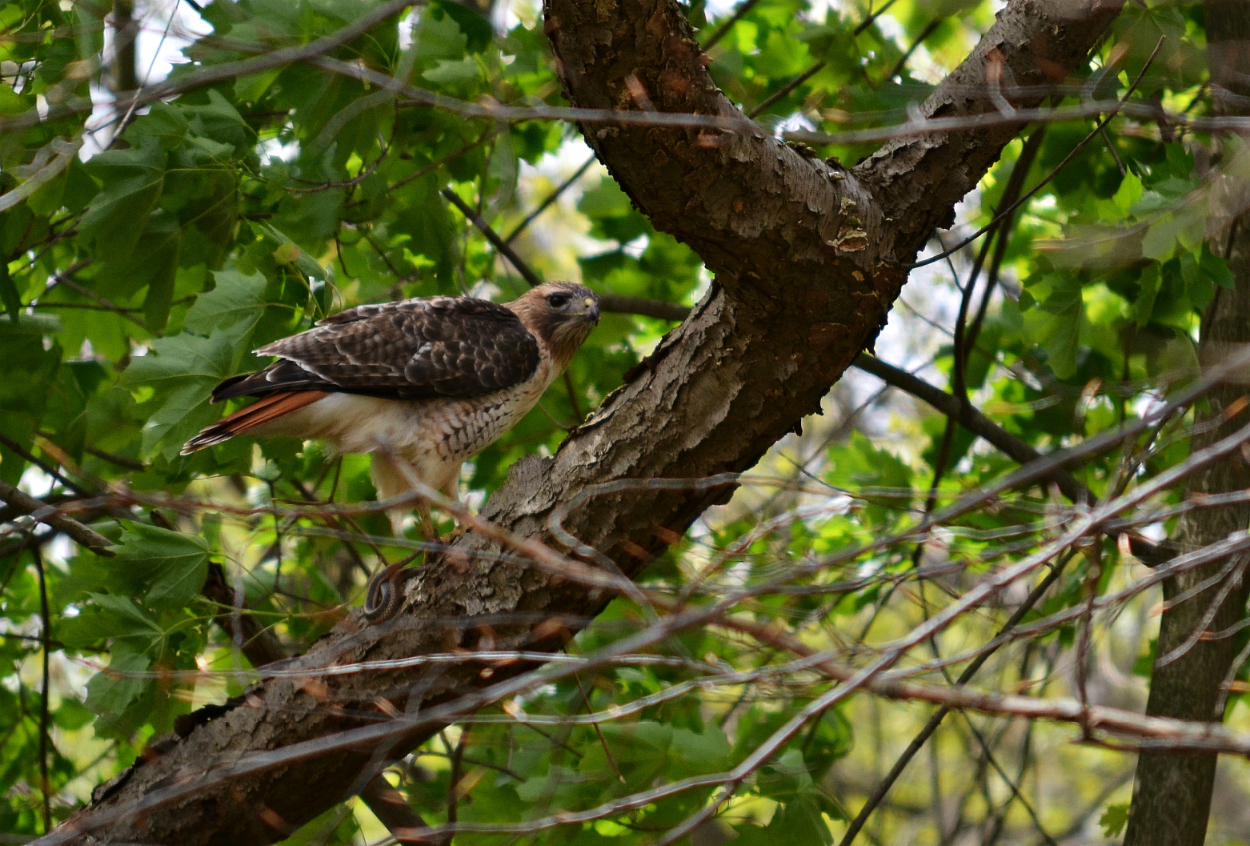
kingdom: Animalia
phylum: Chordata
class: Aves
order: Accipitriformes
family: Accipitridae
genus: Buteo
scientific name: Buteo jamaicensis
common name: Red-tailed hawk
